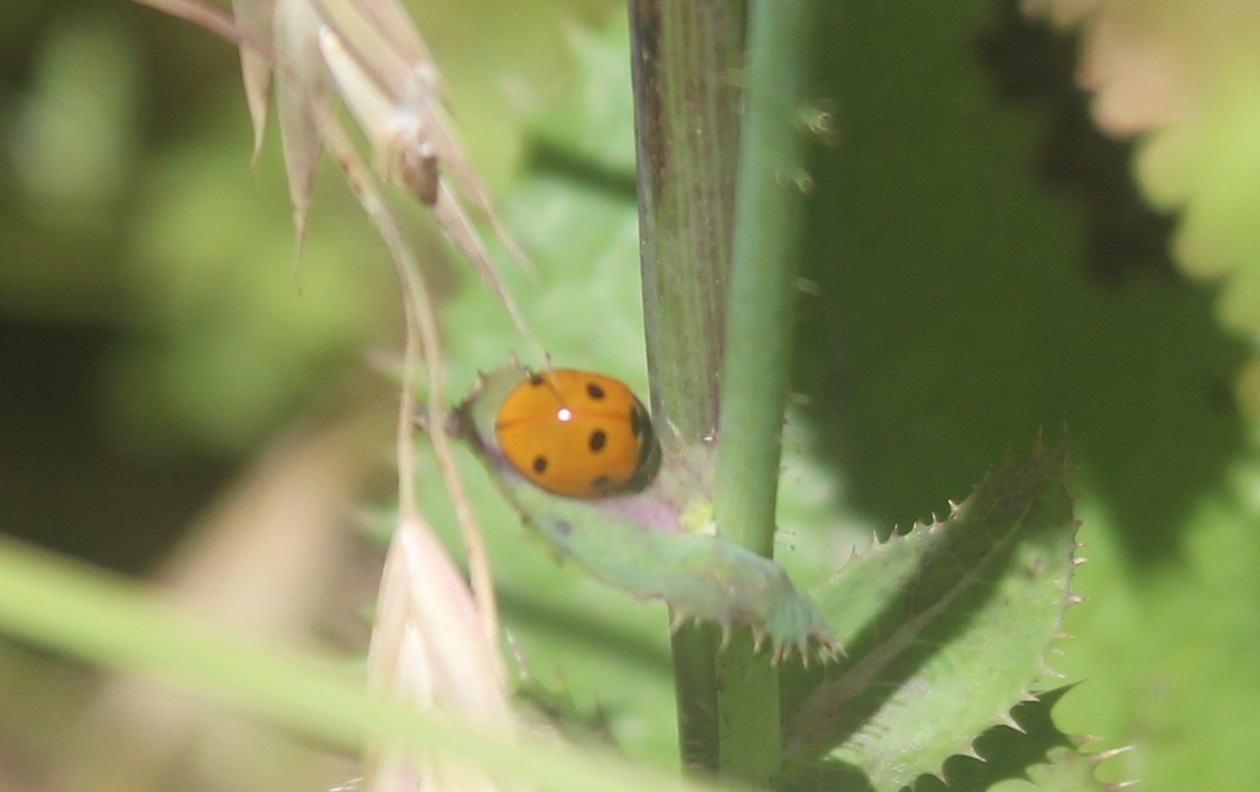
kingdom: Animalia
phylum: Arthropoda
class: Insecta
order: Coleoptera
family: Coccinellidae
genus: Coccinella
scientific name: Coccinella septempunctata
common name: Sevenspotted lady beetle
